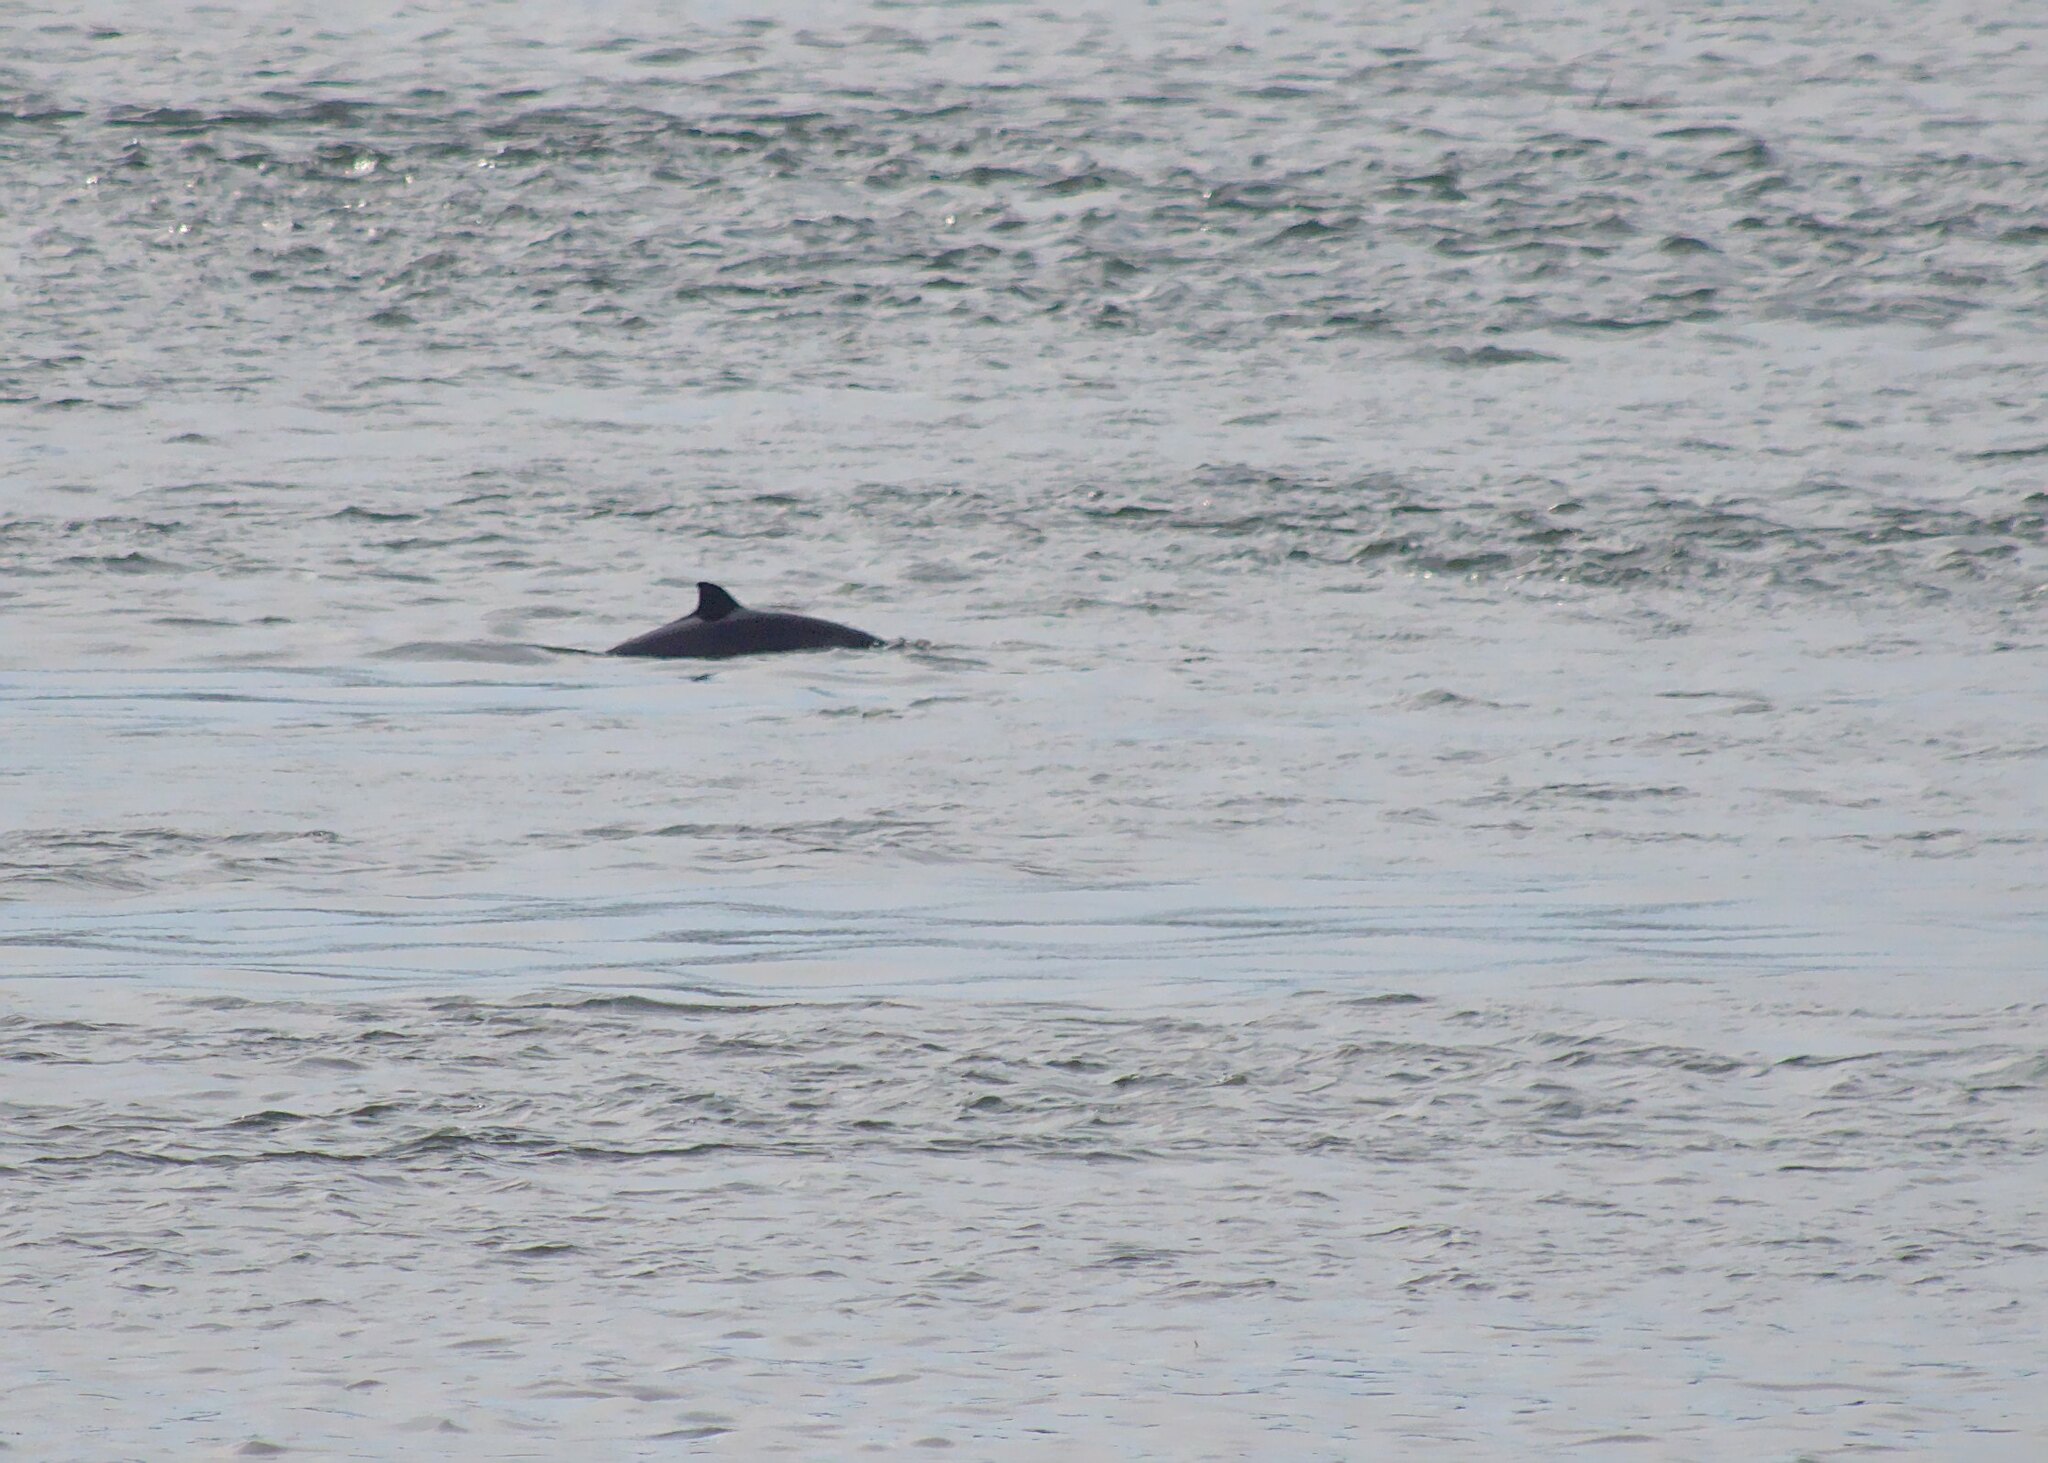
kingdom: Animalia
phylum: Chordata
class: Mammalia
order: Cetacea
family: Phocoenidae
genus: Phocoena
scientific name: Phocoena phocoena
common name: Harbor porpoise
